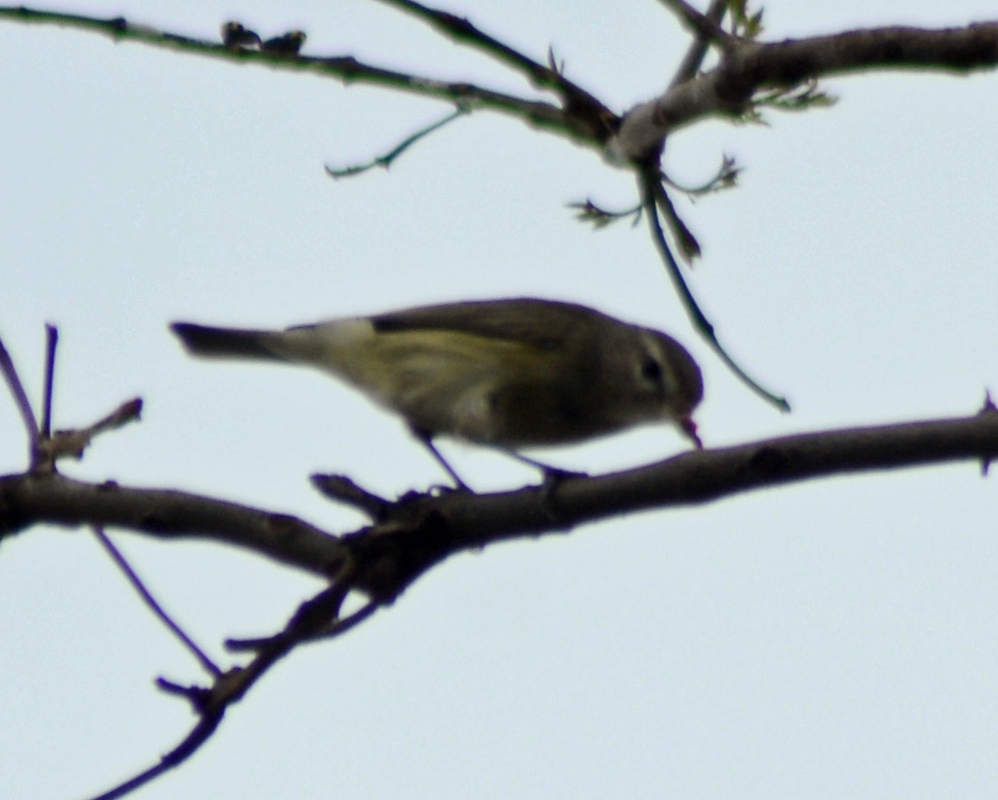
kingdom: Animalia
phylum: Chordata
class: Aves
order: Passeriformes
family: Vireonidae
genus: Vireo
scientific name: Vireo gilvus
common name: Warbling vireo
